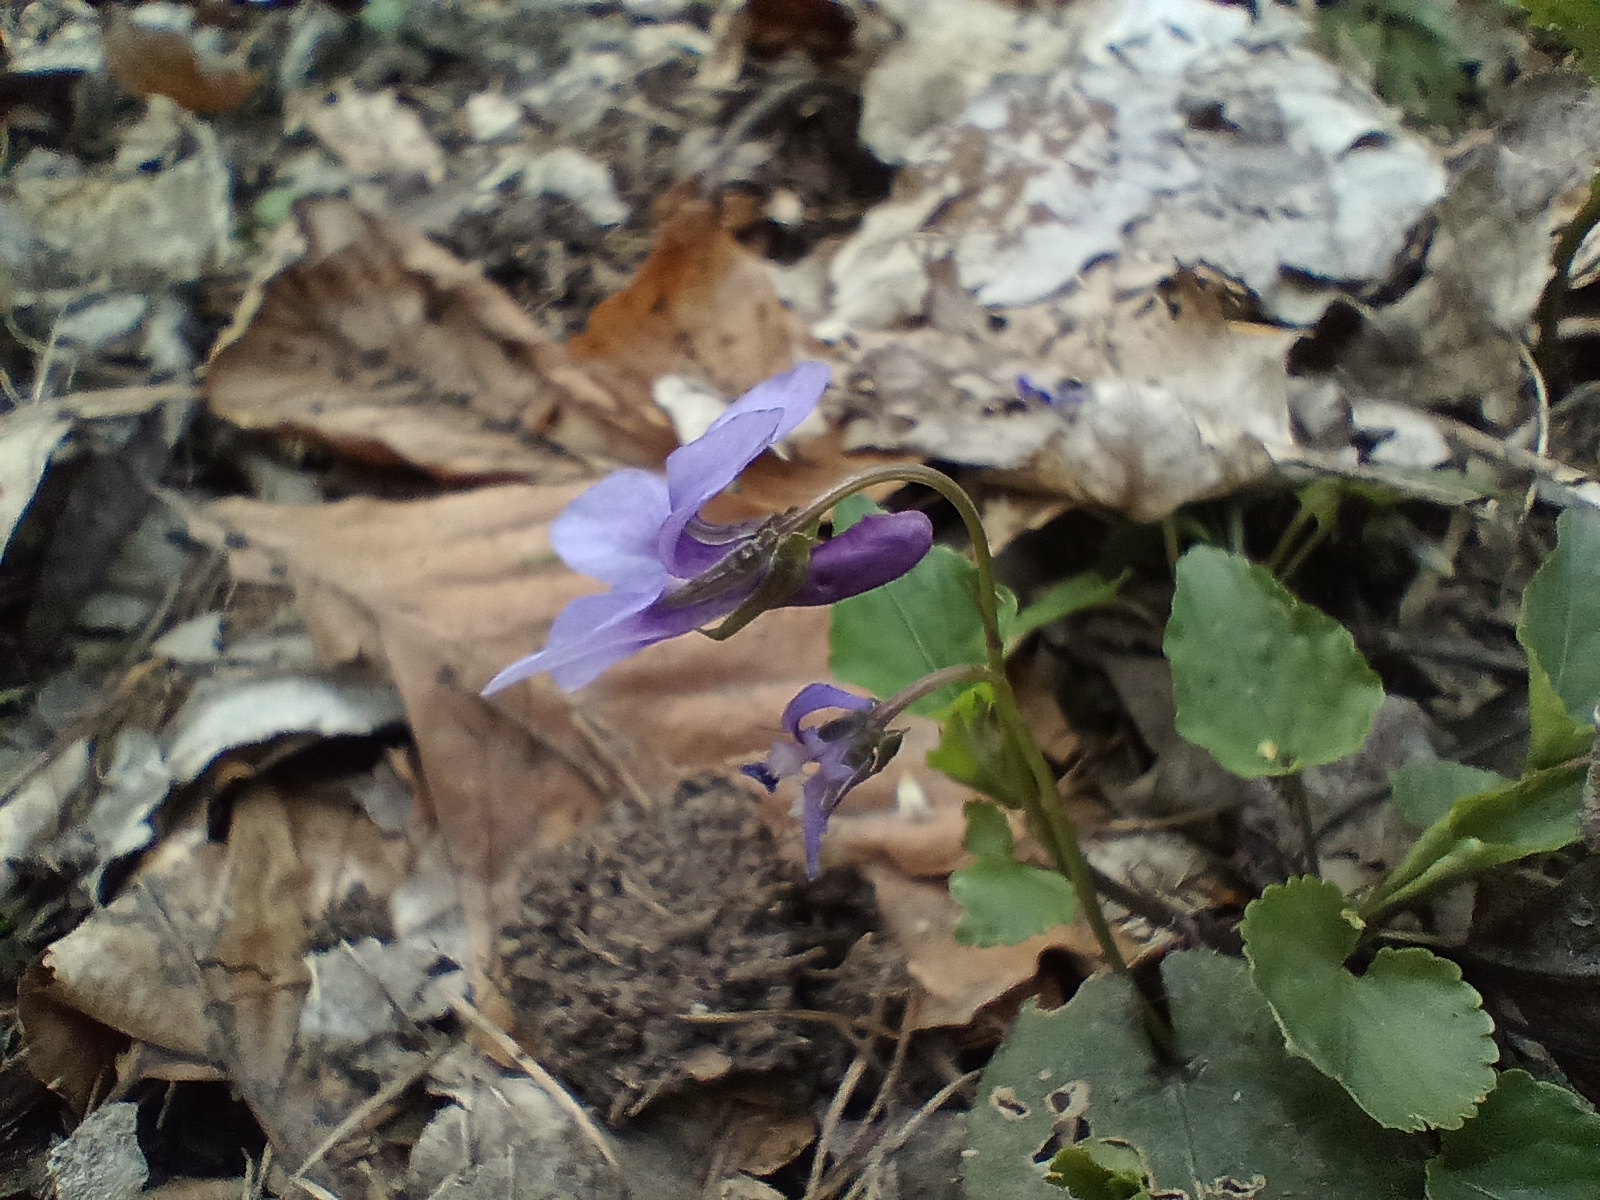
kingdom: Plantae
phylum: Tracheophyta
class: Magnoliopsida
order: Malpighiales
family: Violaceae
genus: Viola
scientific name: Viola reichenbachiana
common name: Early dog-violet
